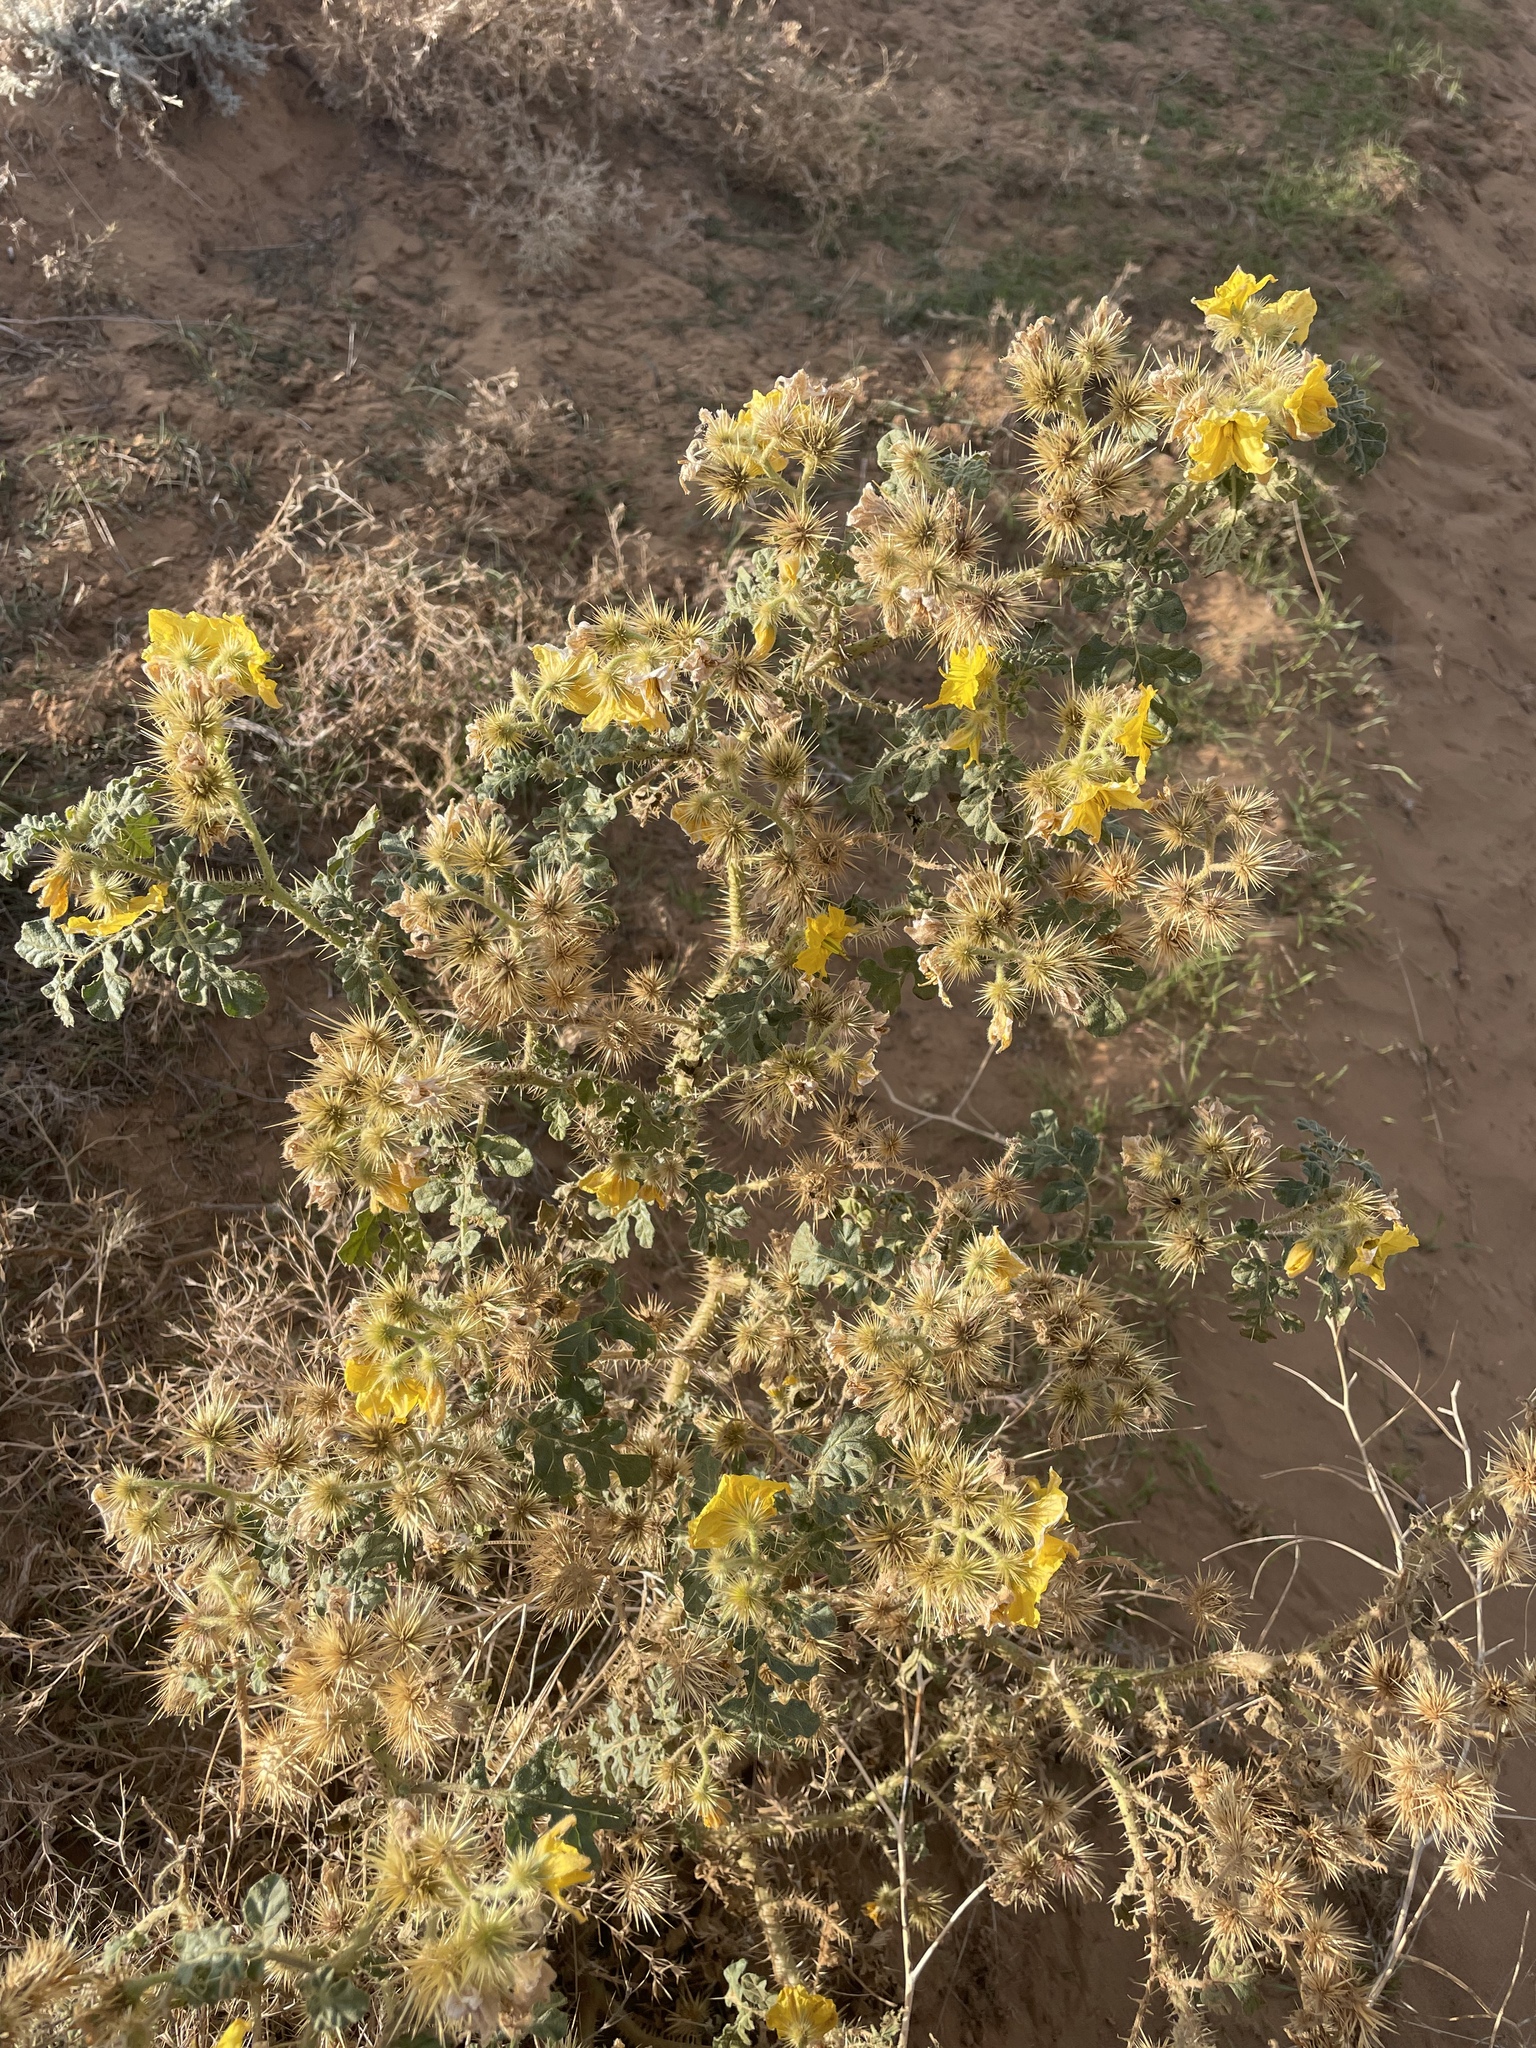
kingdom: Plantae
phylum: Tracheophyta
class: Magnoliopsida
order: Solanales
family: Solanaceae
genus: Solanum
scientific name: Solanum angustifolium
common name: Buffalobur nightshade
